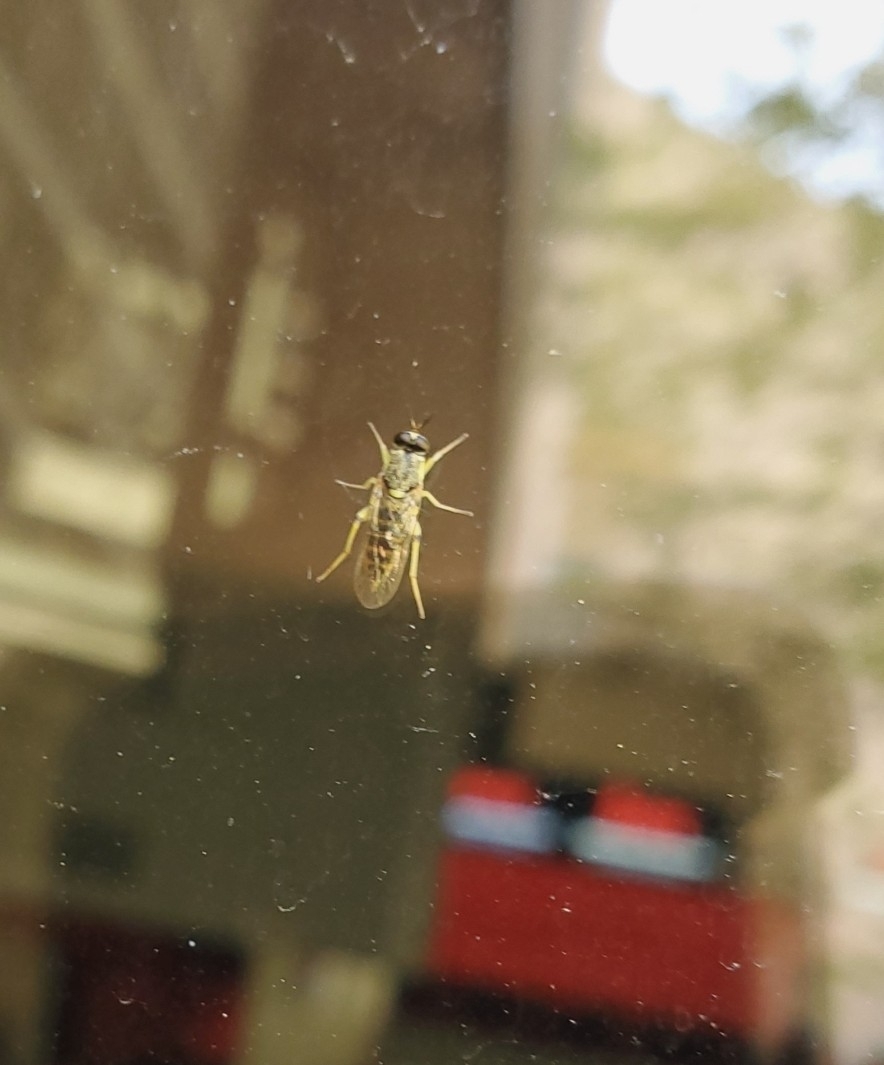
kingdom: Animalia
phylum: Arthropoda
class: Insecta
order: Diptera
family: Xylomyidae
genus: Solva
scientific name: Solva pallipes
